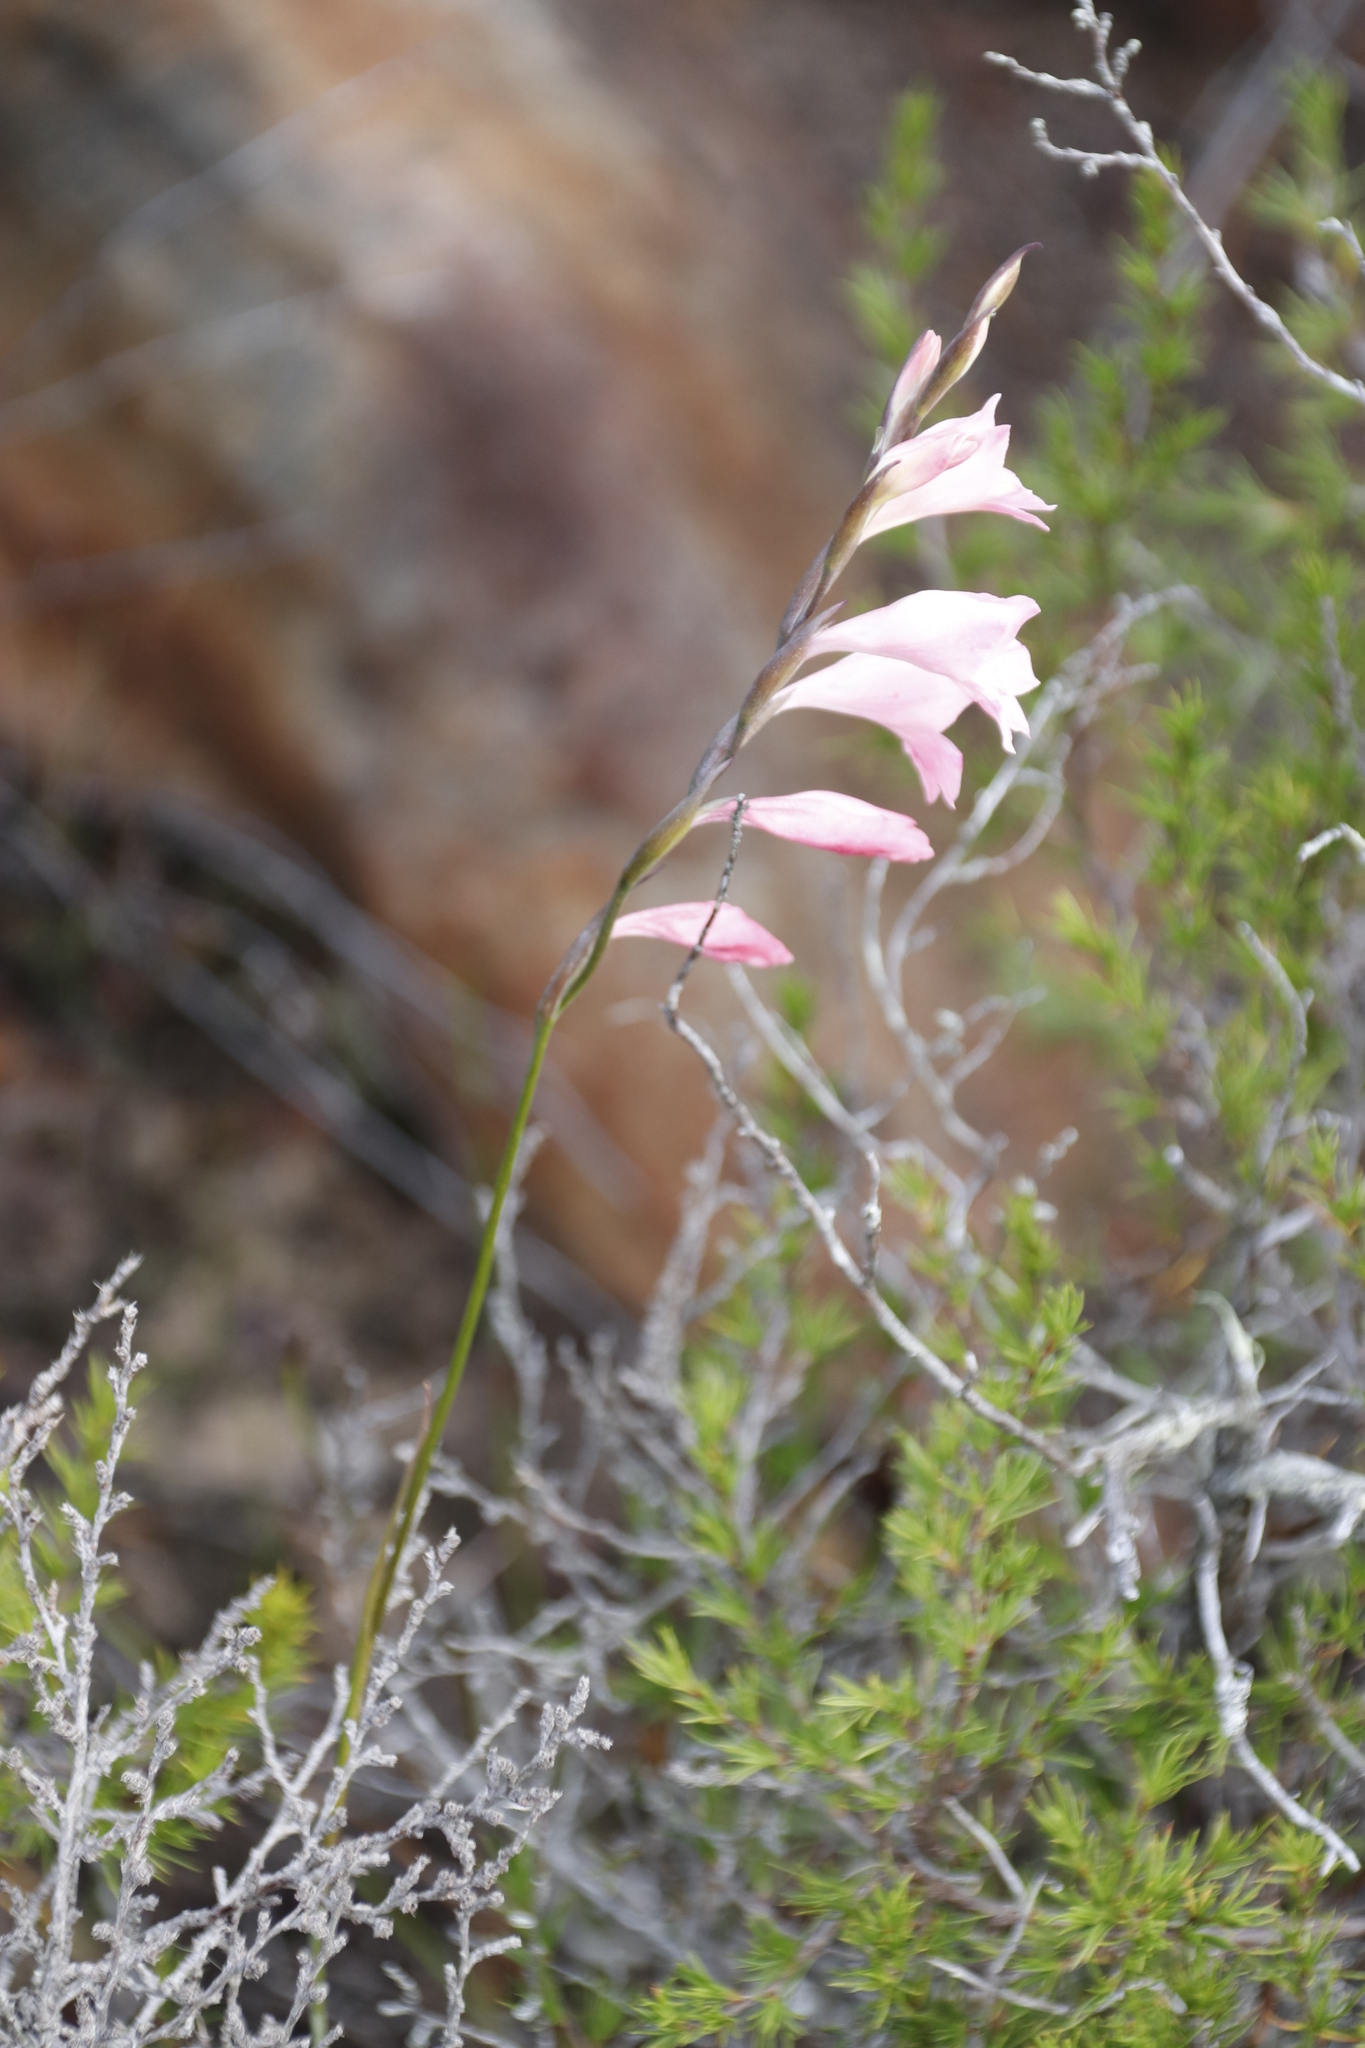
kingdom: Plantae
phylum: Tracheophyta
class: Liliopsida
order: Asparagales
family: Iridaceae
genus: Gladiolus
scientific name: Gladiolus brevifolius
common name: March pypie
